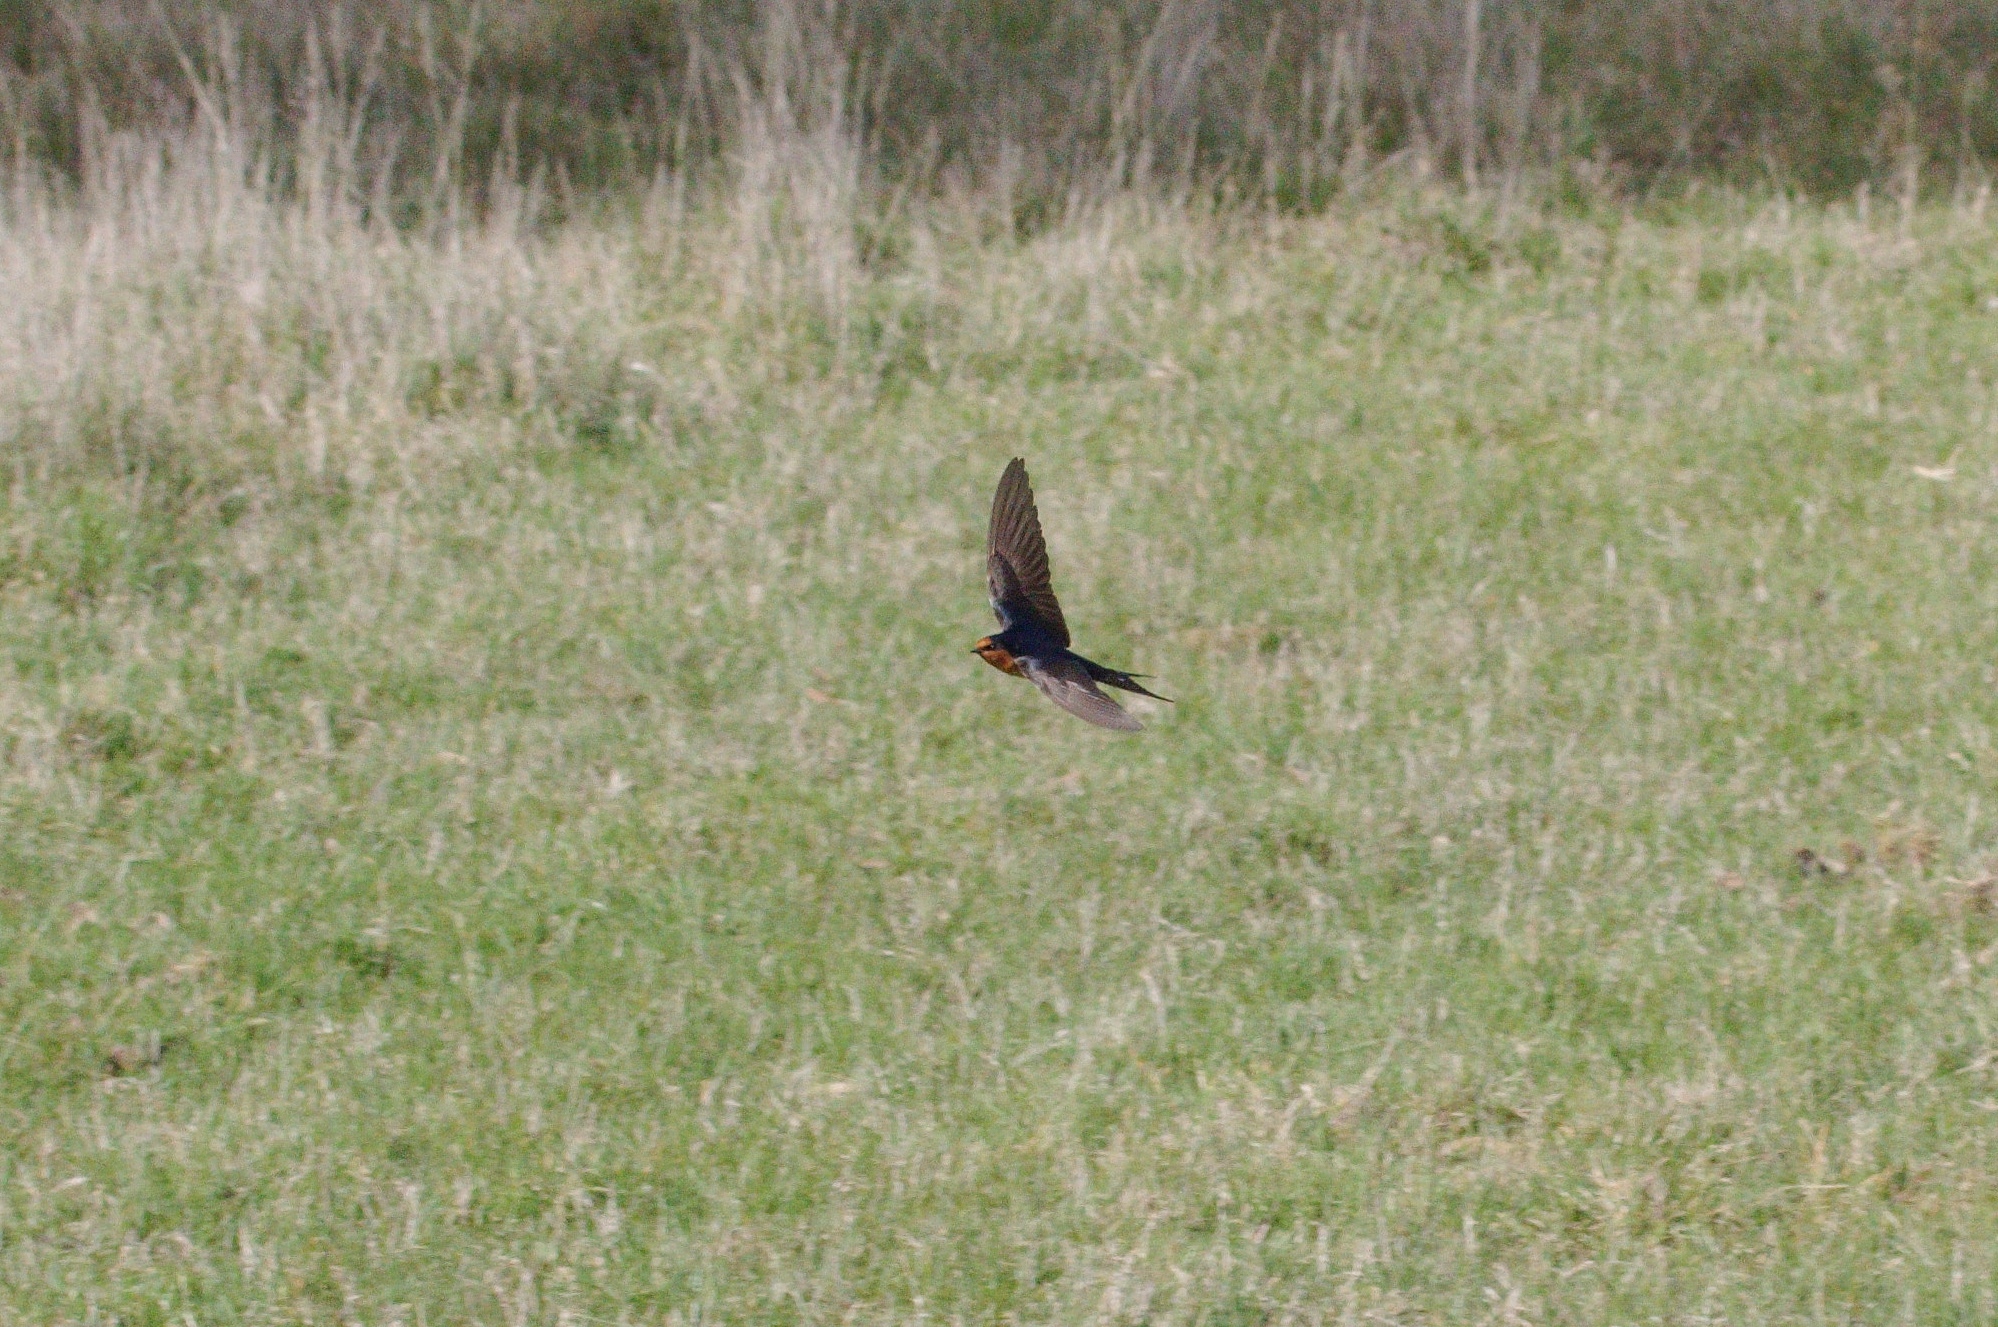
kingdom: Animalia
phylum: Chordata
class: Aves
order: Passeriformes
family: Hirundinidae
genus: Hirundo
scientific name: Hirundo neoxena
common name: Welcome swallow
